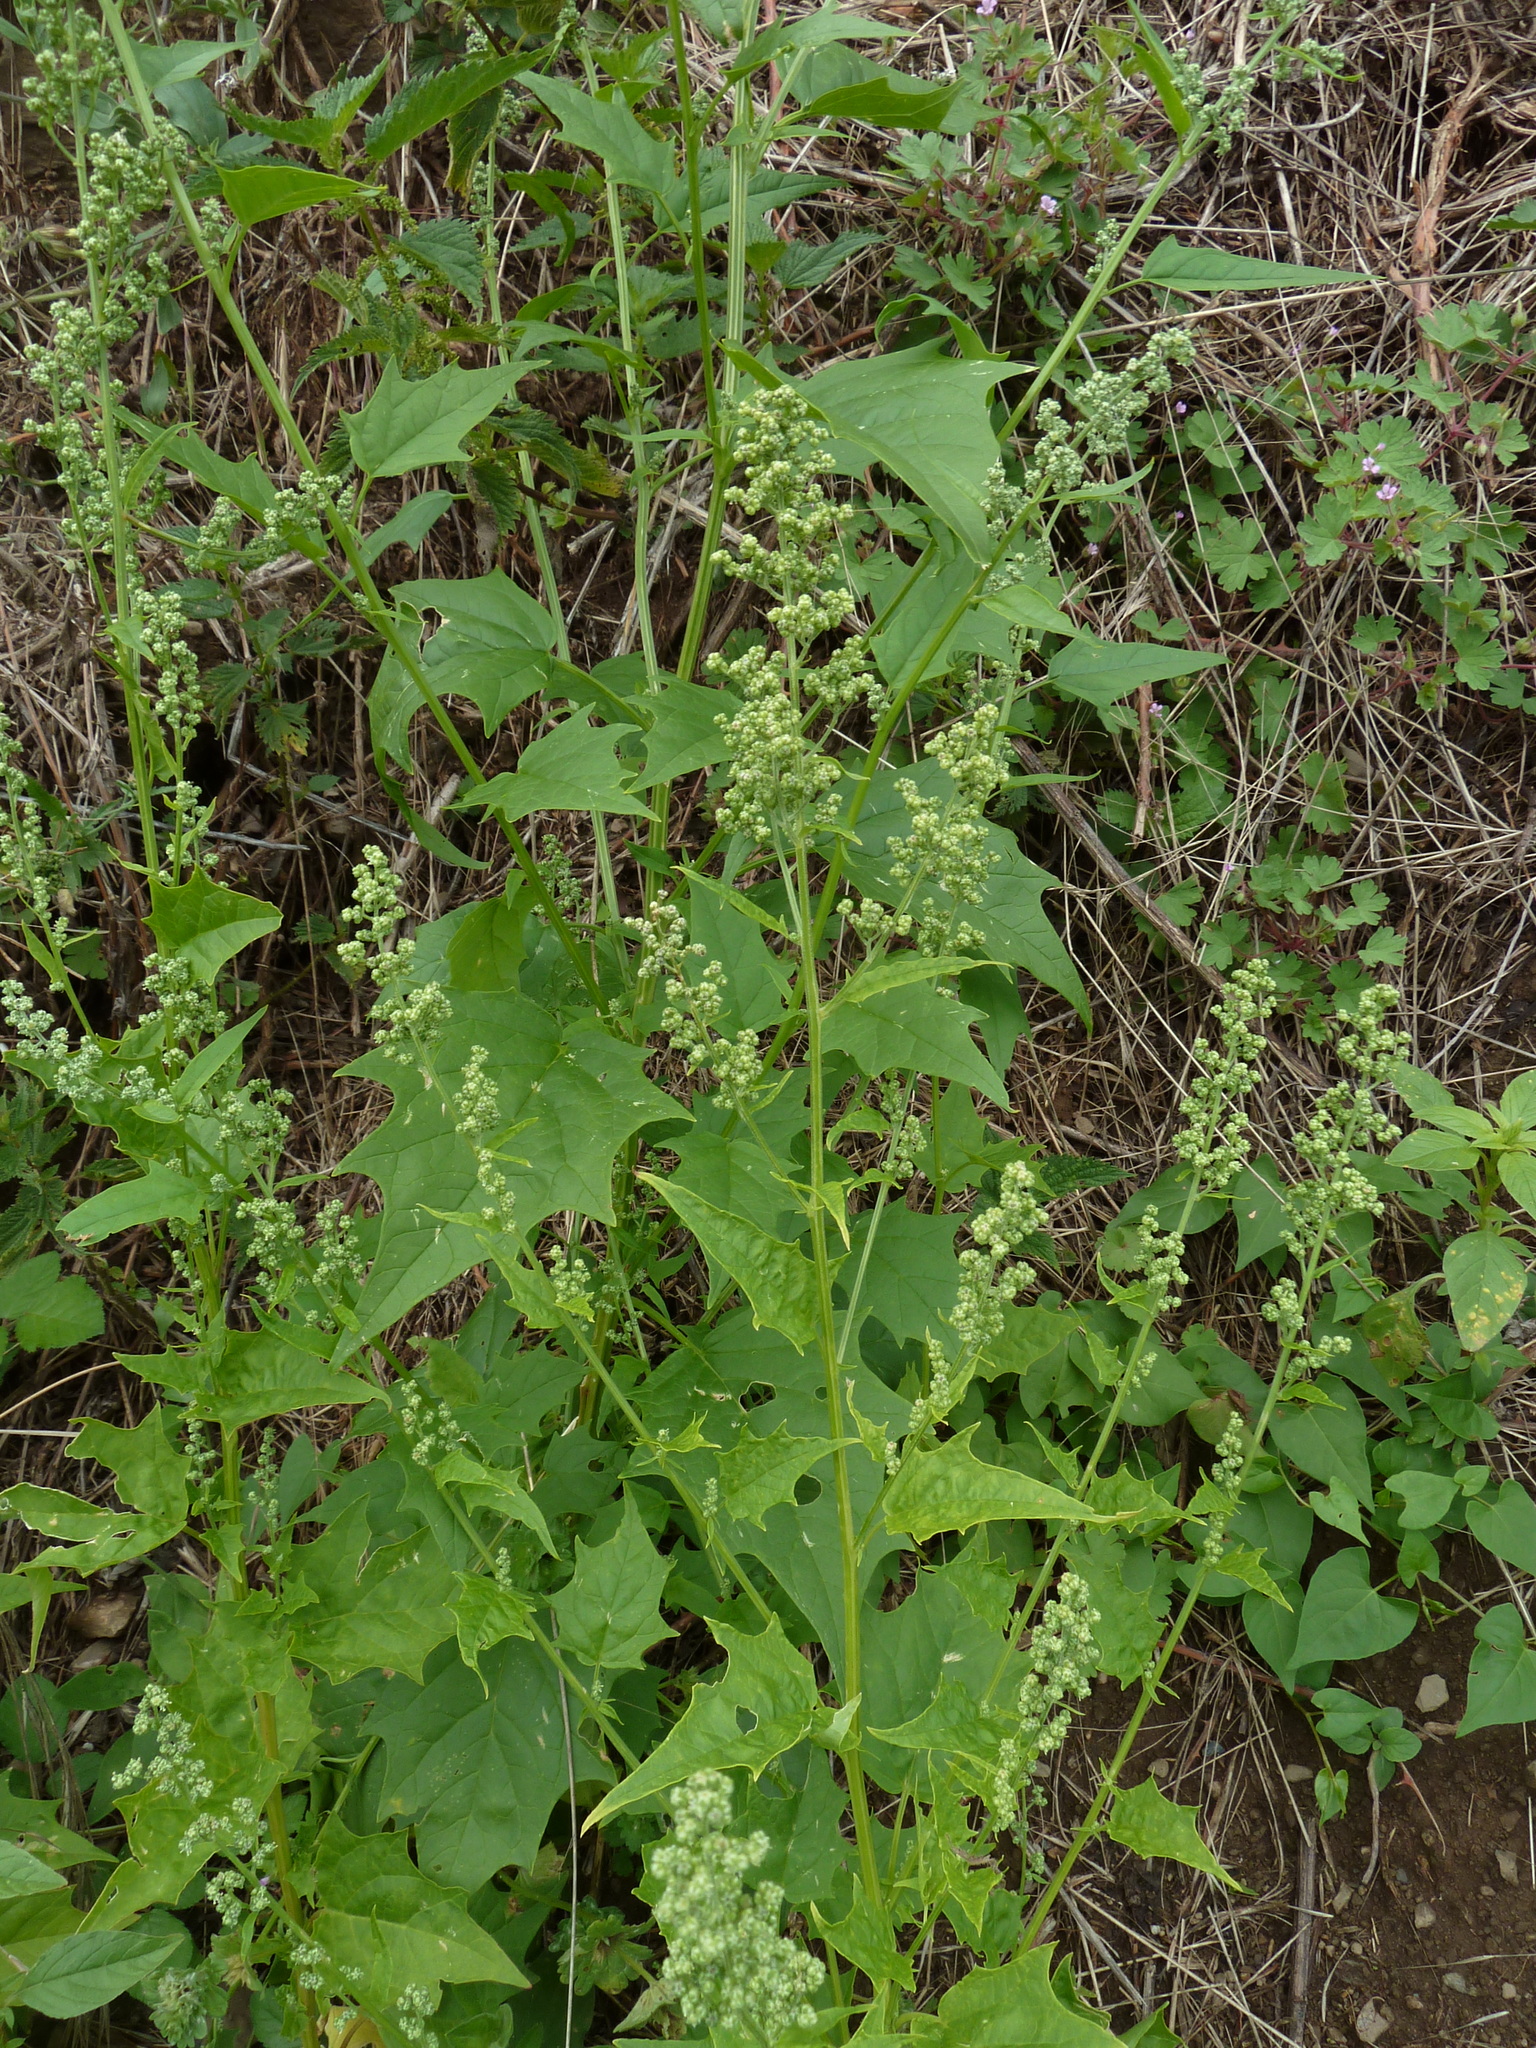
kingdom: Plantae
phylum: Tracheophyta
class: Magnoliopsida
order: Caryophyllales
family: Amaranthaceae
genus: Chenopodiastrum
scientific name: Chenopodiastrum hybridum
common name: Mapleleaf goosefoot
